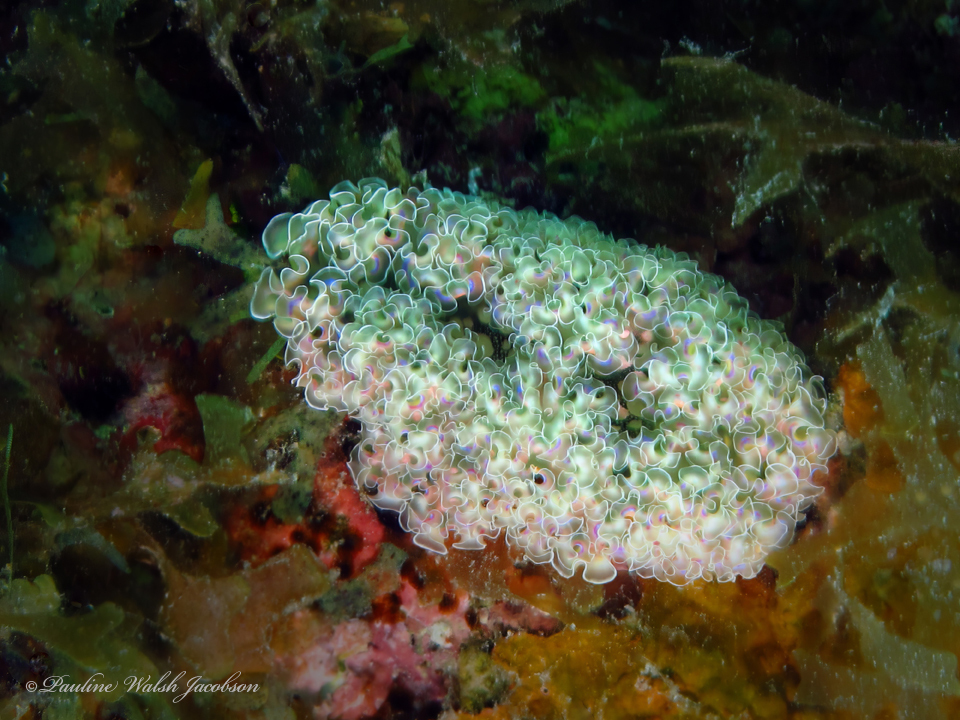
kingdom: Animalia
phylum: Mollusca
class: Gastropoda
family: Plakobranchidae
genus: Elysia
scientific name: Elysia crispata
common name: Lettuce slug
